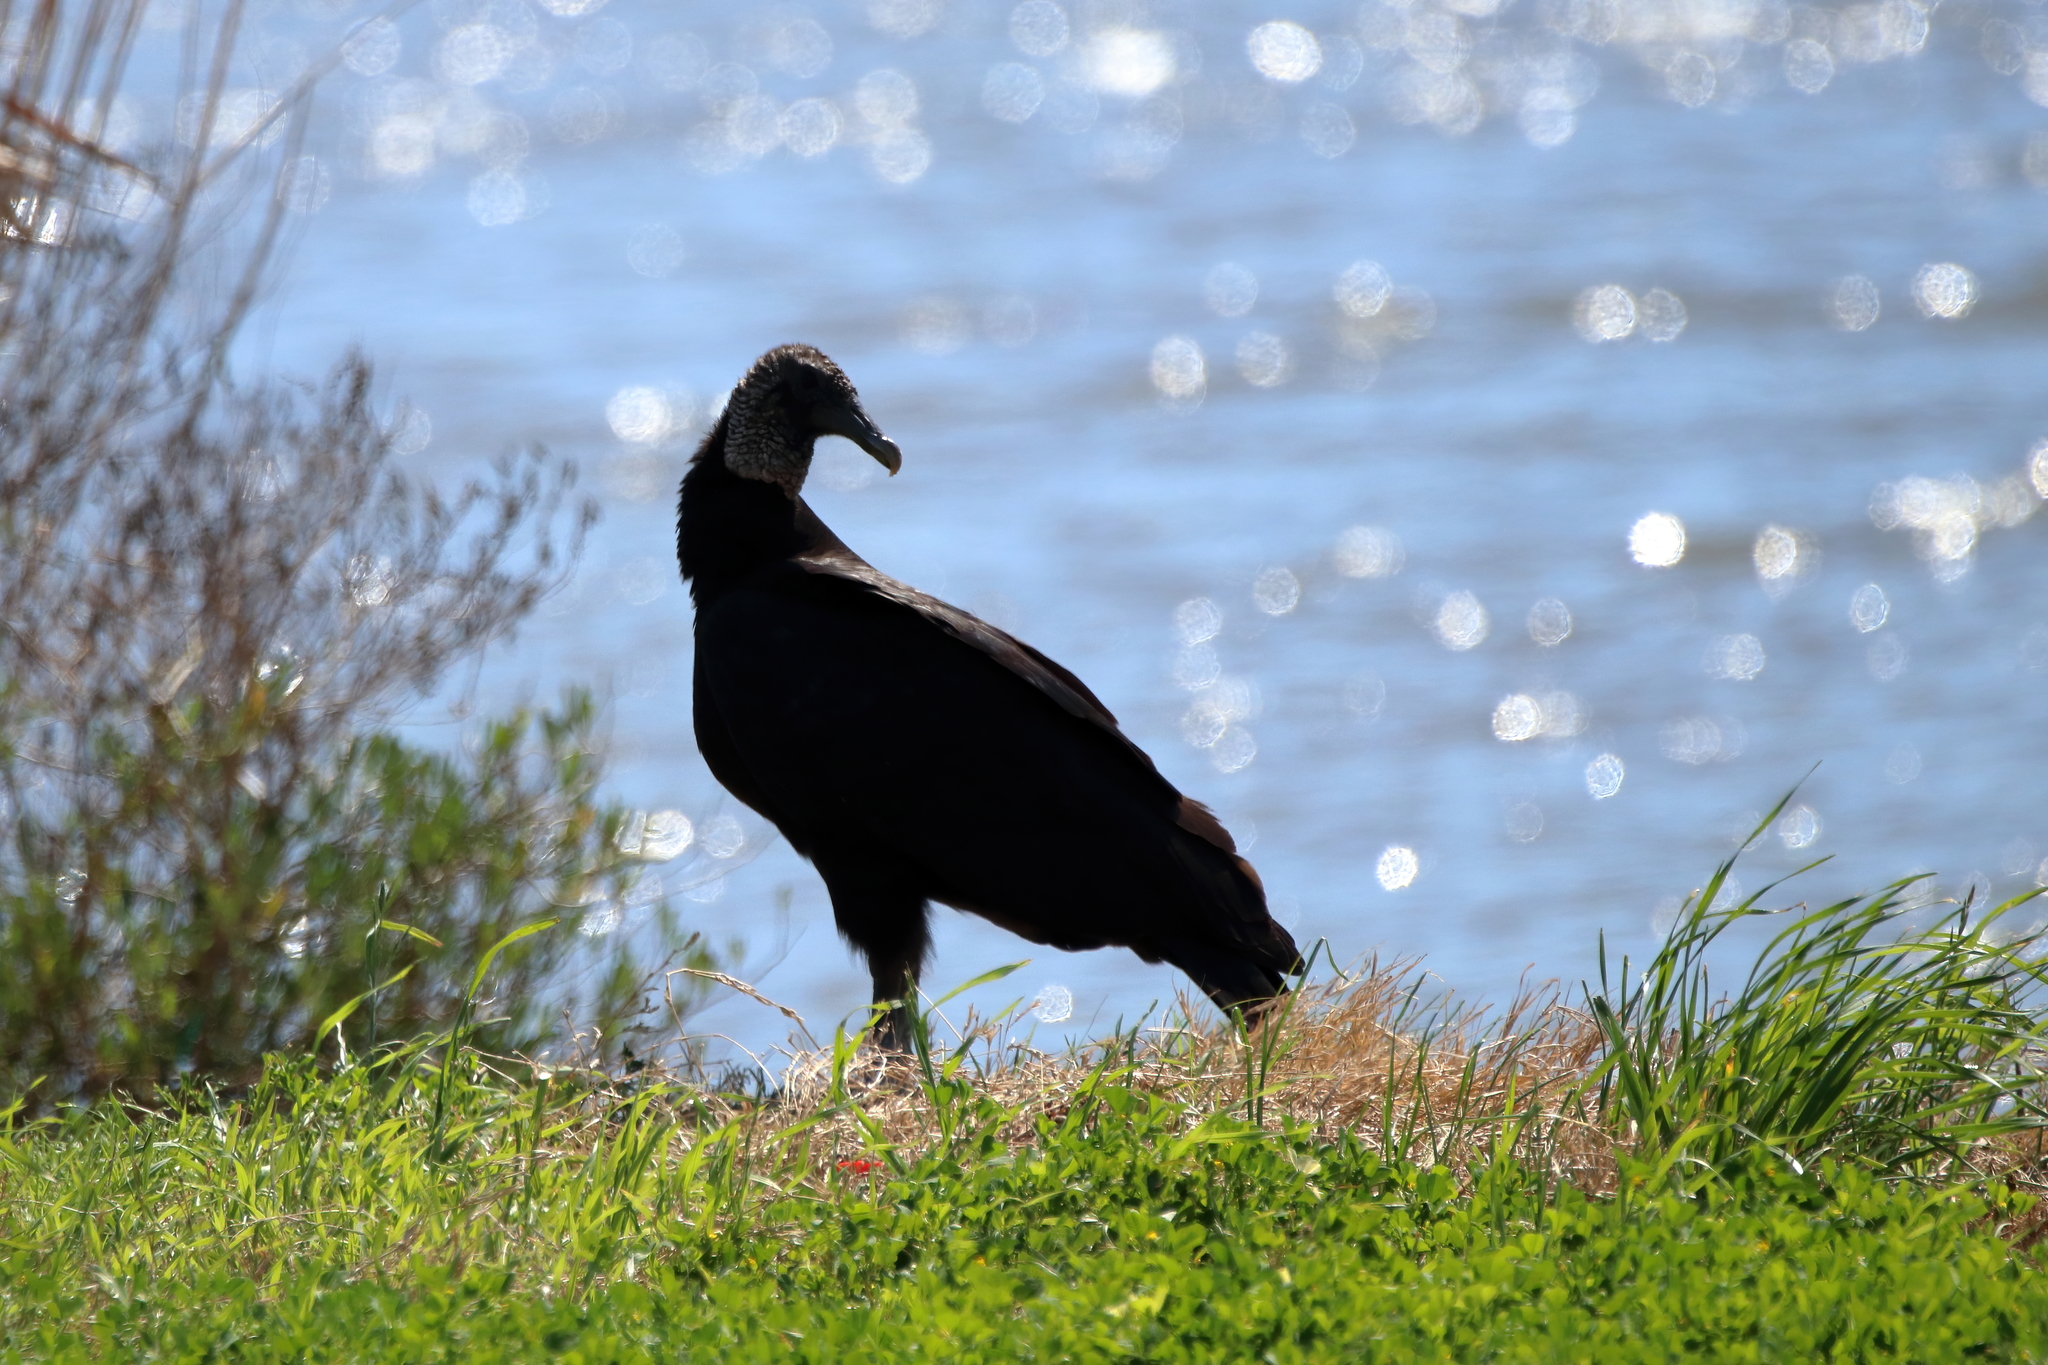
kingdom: Animalia
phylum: Chordata
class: Aves
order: Accipitriformes
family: Cathartidae
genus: Coragyps
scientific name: Coragyps atratus
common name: Black vulture
